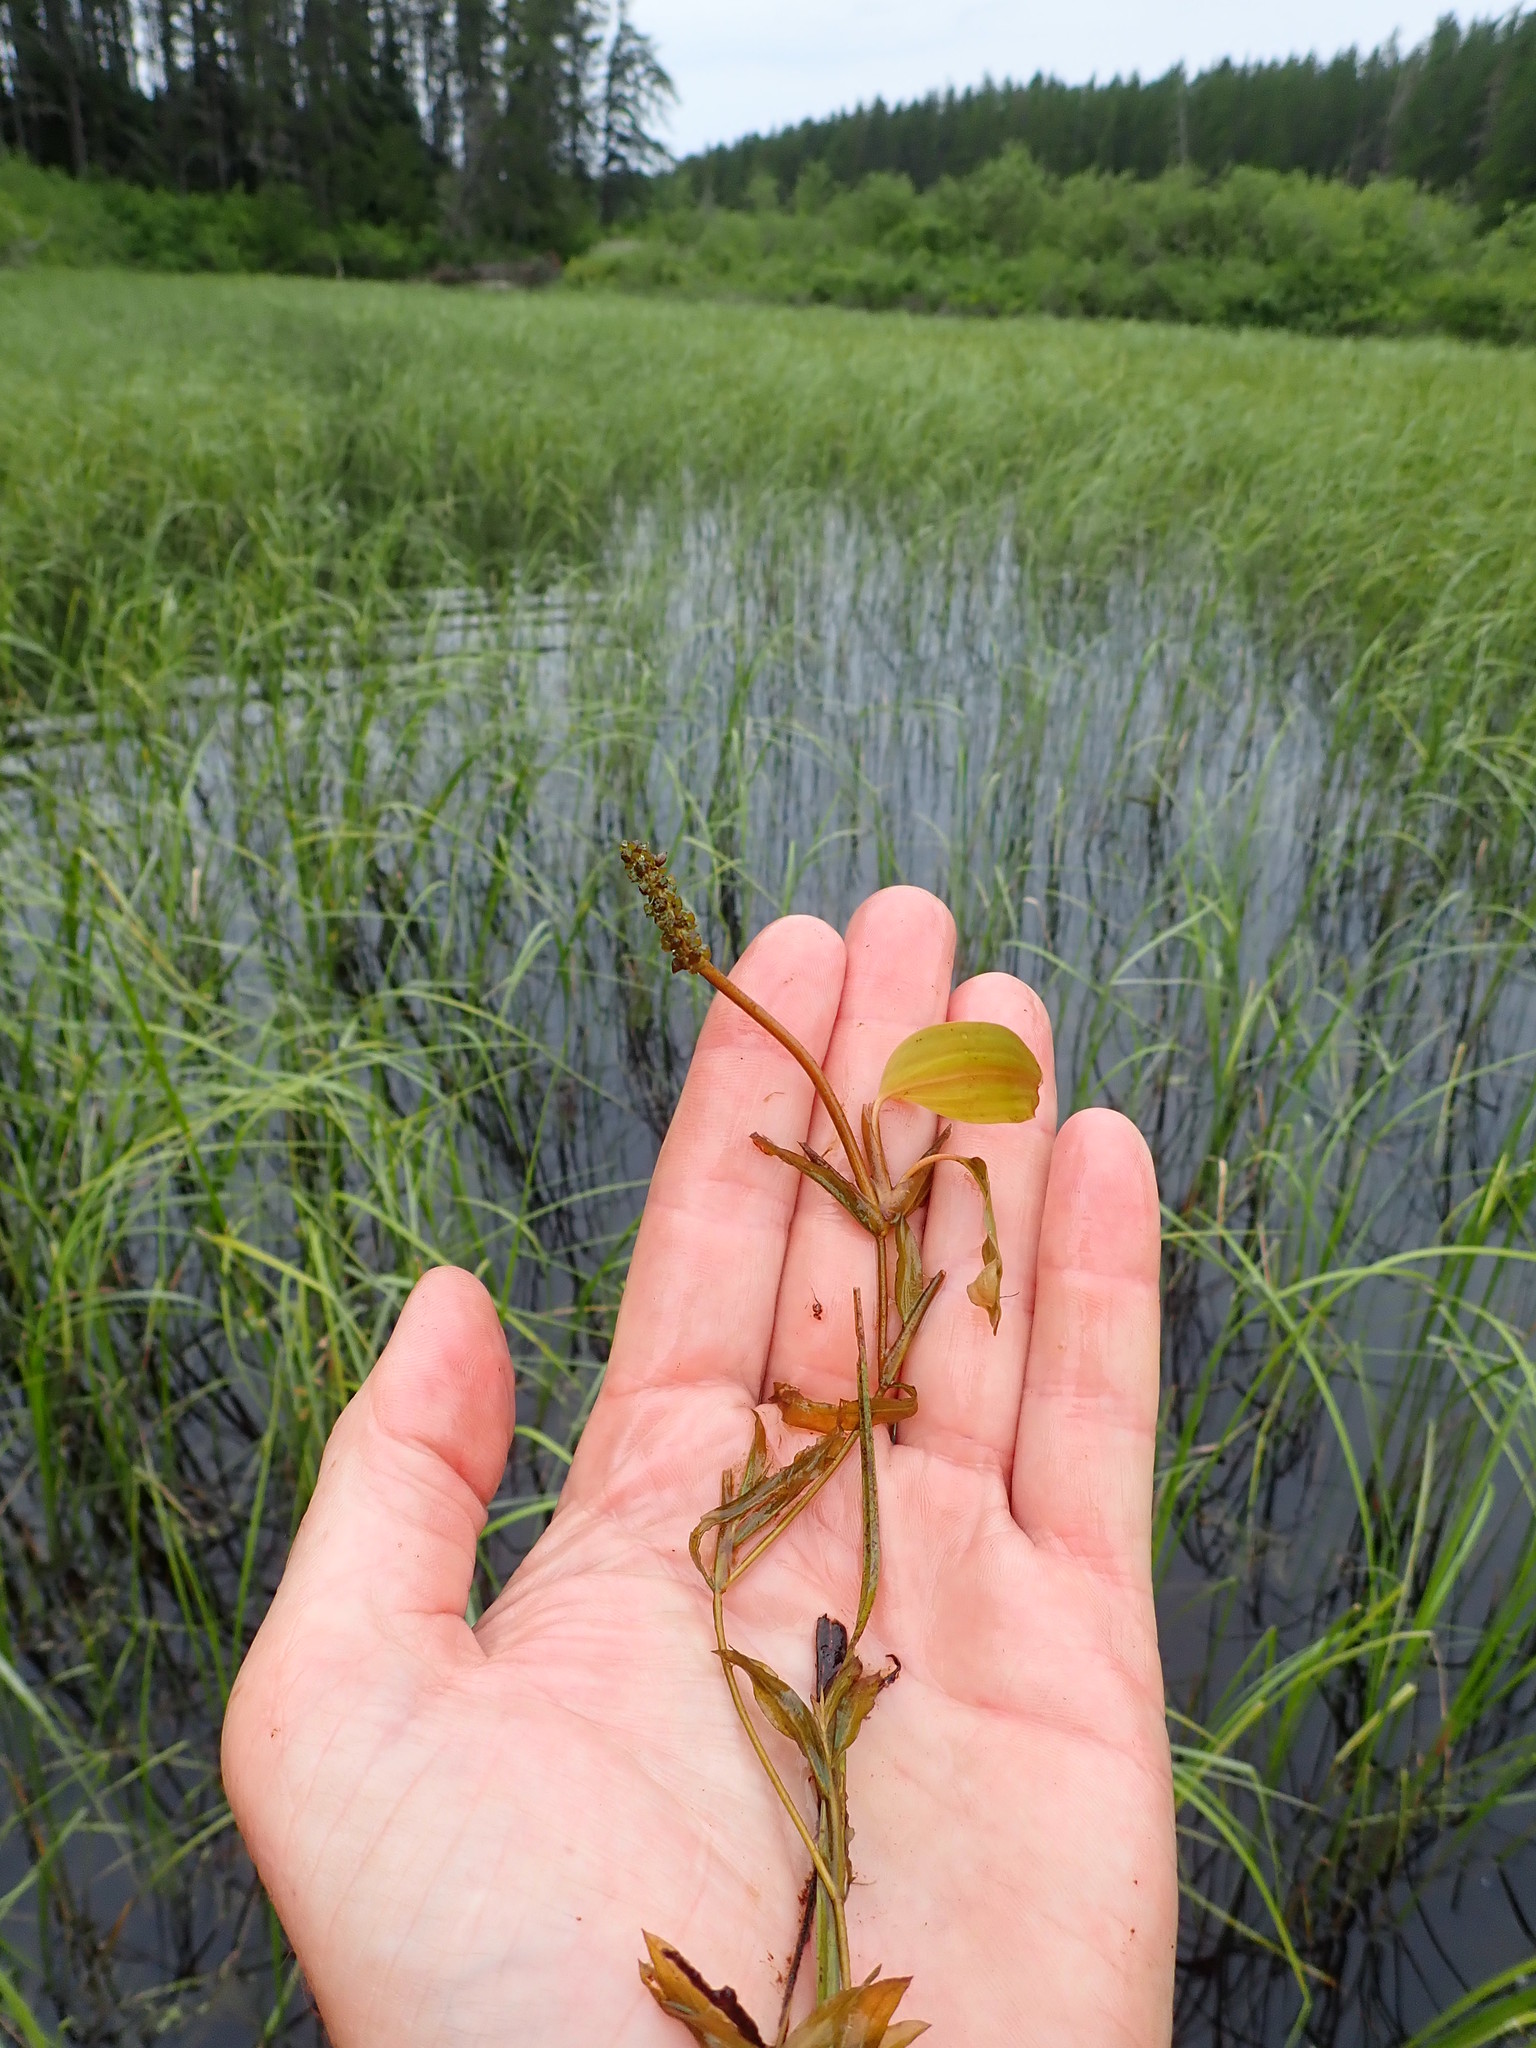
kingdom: Plantae
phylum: Tracheophyta
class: Liliopsida
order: Alismatales
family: Potamogetonaceae
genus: Potamogeton
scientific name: Potamogeton gramineus
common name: Various-leaved pondweed
